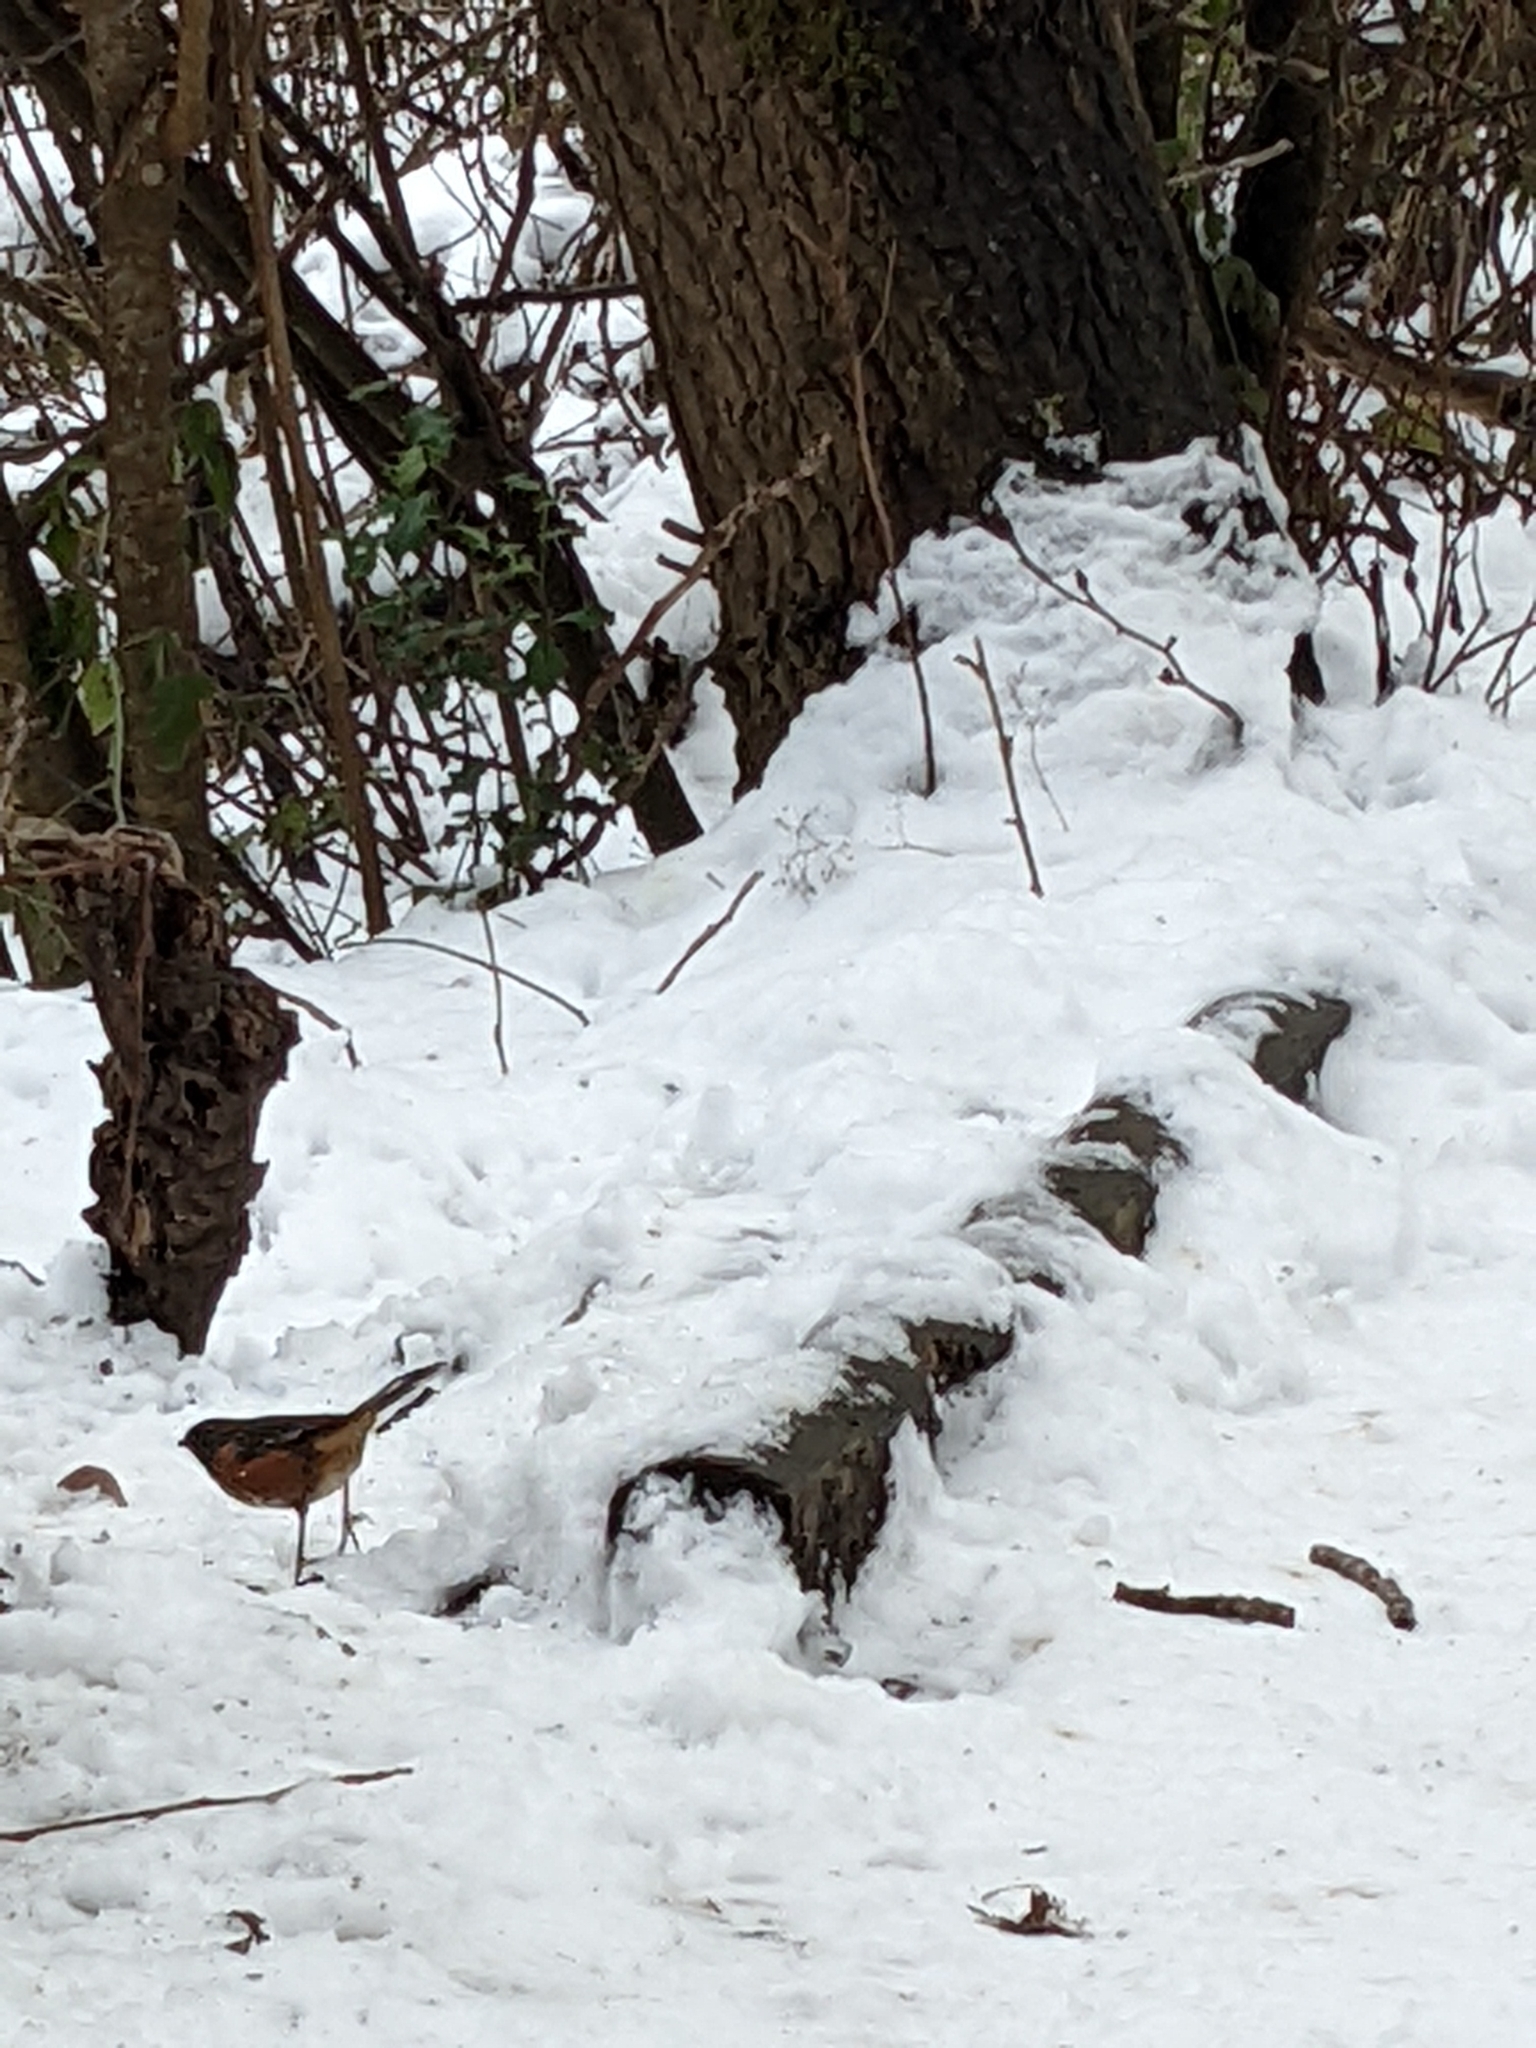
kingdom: Animalia
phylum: Chordata
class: Aves
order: Passeriformes
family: Passerellidae
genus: Pipilo
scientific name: Pipilo maculatus
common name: Spotted towhee
